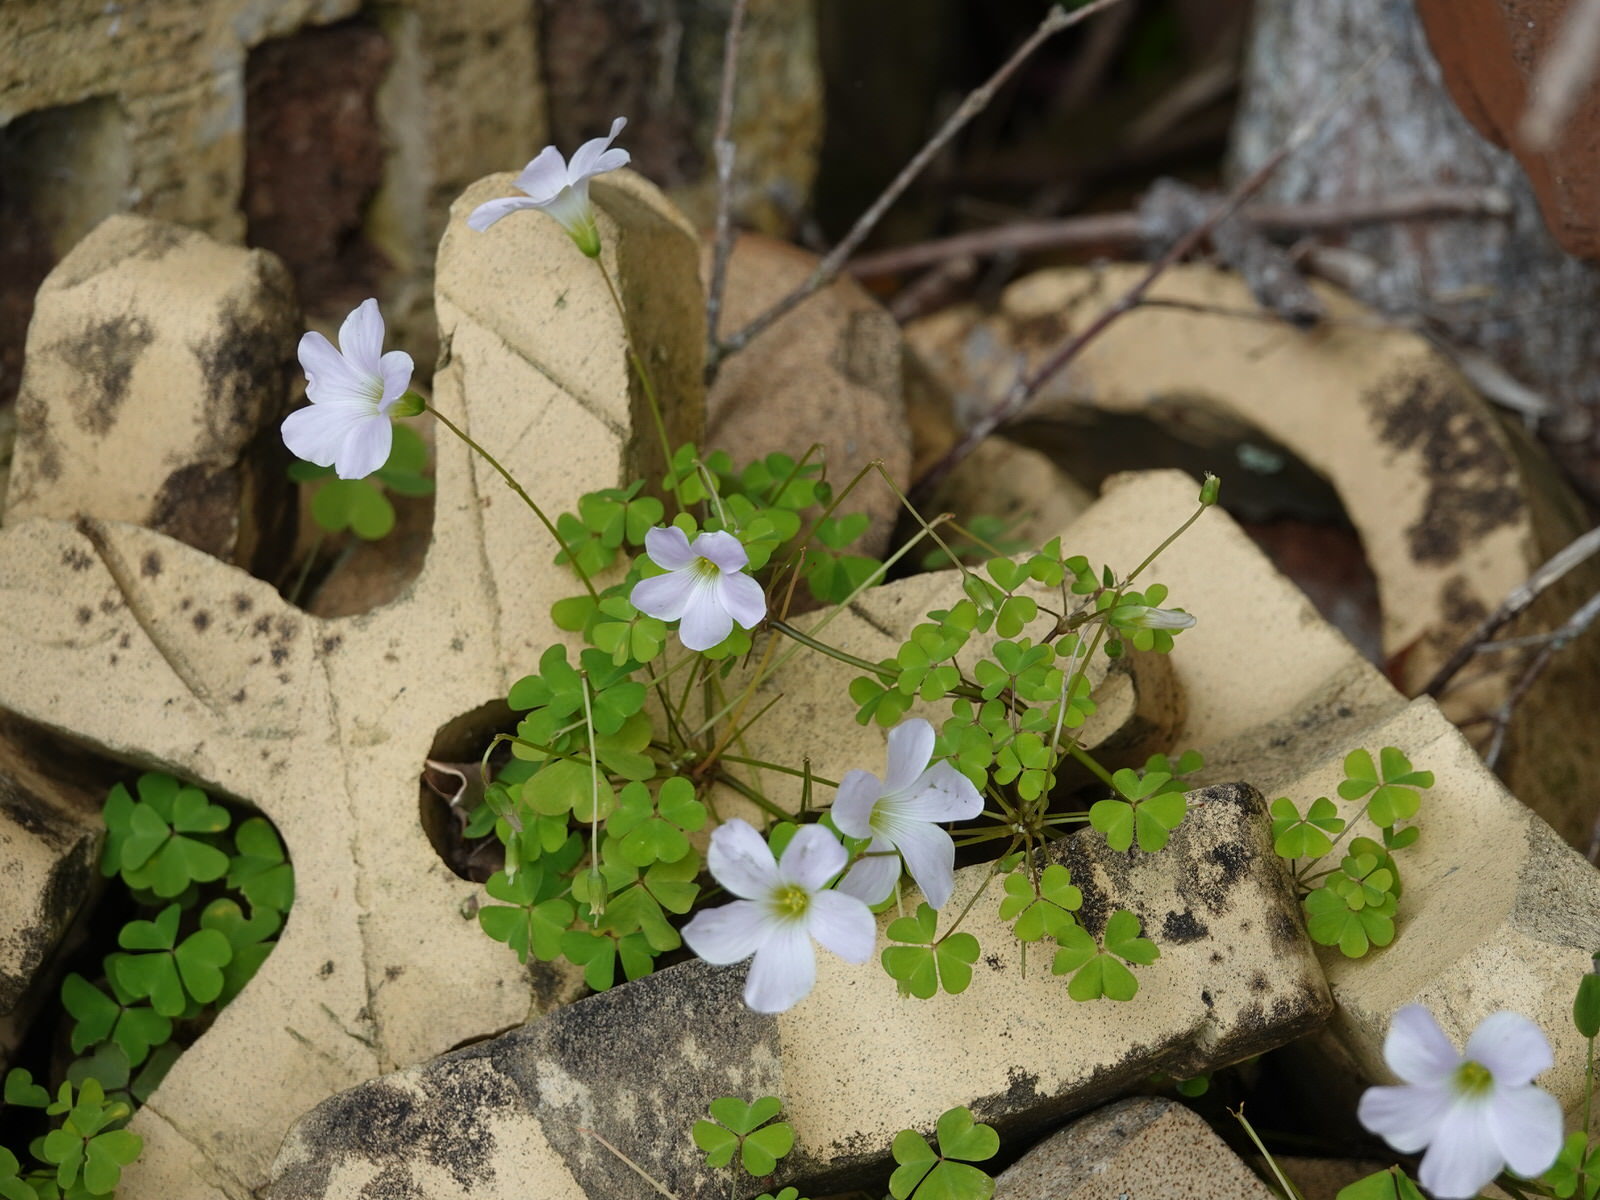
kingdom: Plantae
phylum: Tracheophyta
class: Magnoliopsida
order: Oxalidales
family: Oxalidaceae
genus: Oxalis
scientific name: Oxalis incarnata
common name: Pale pink-sorrel
